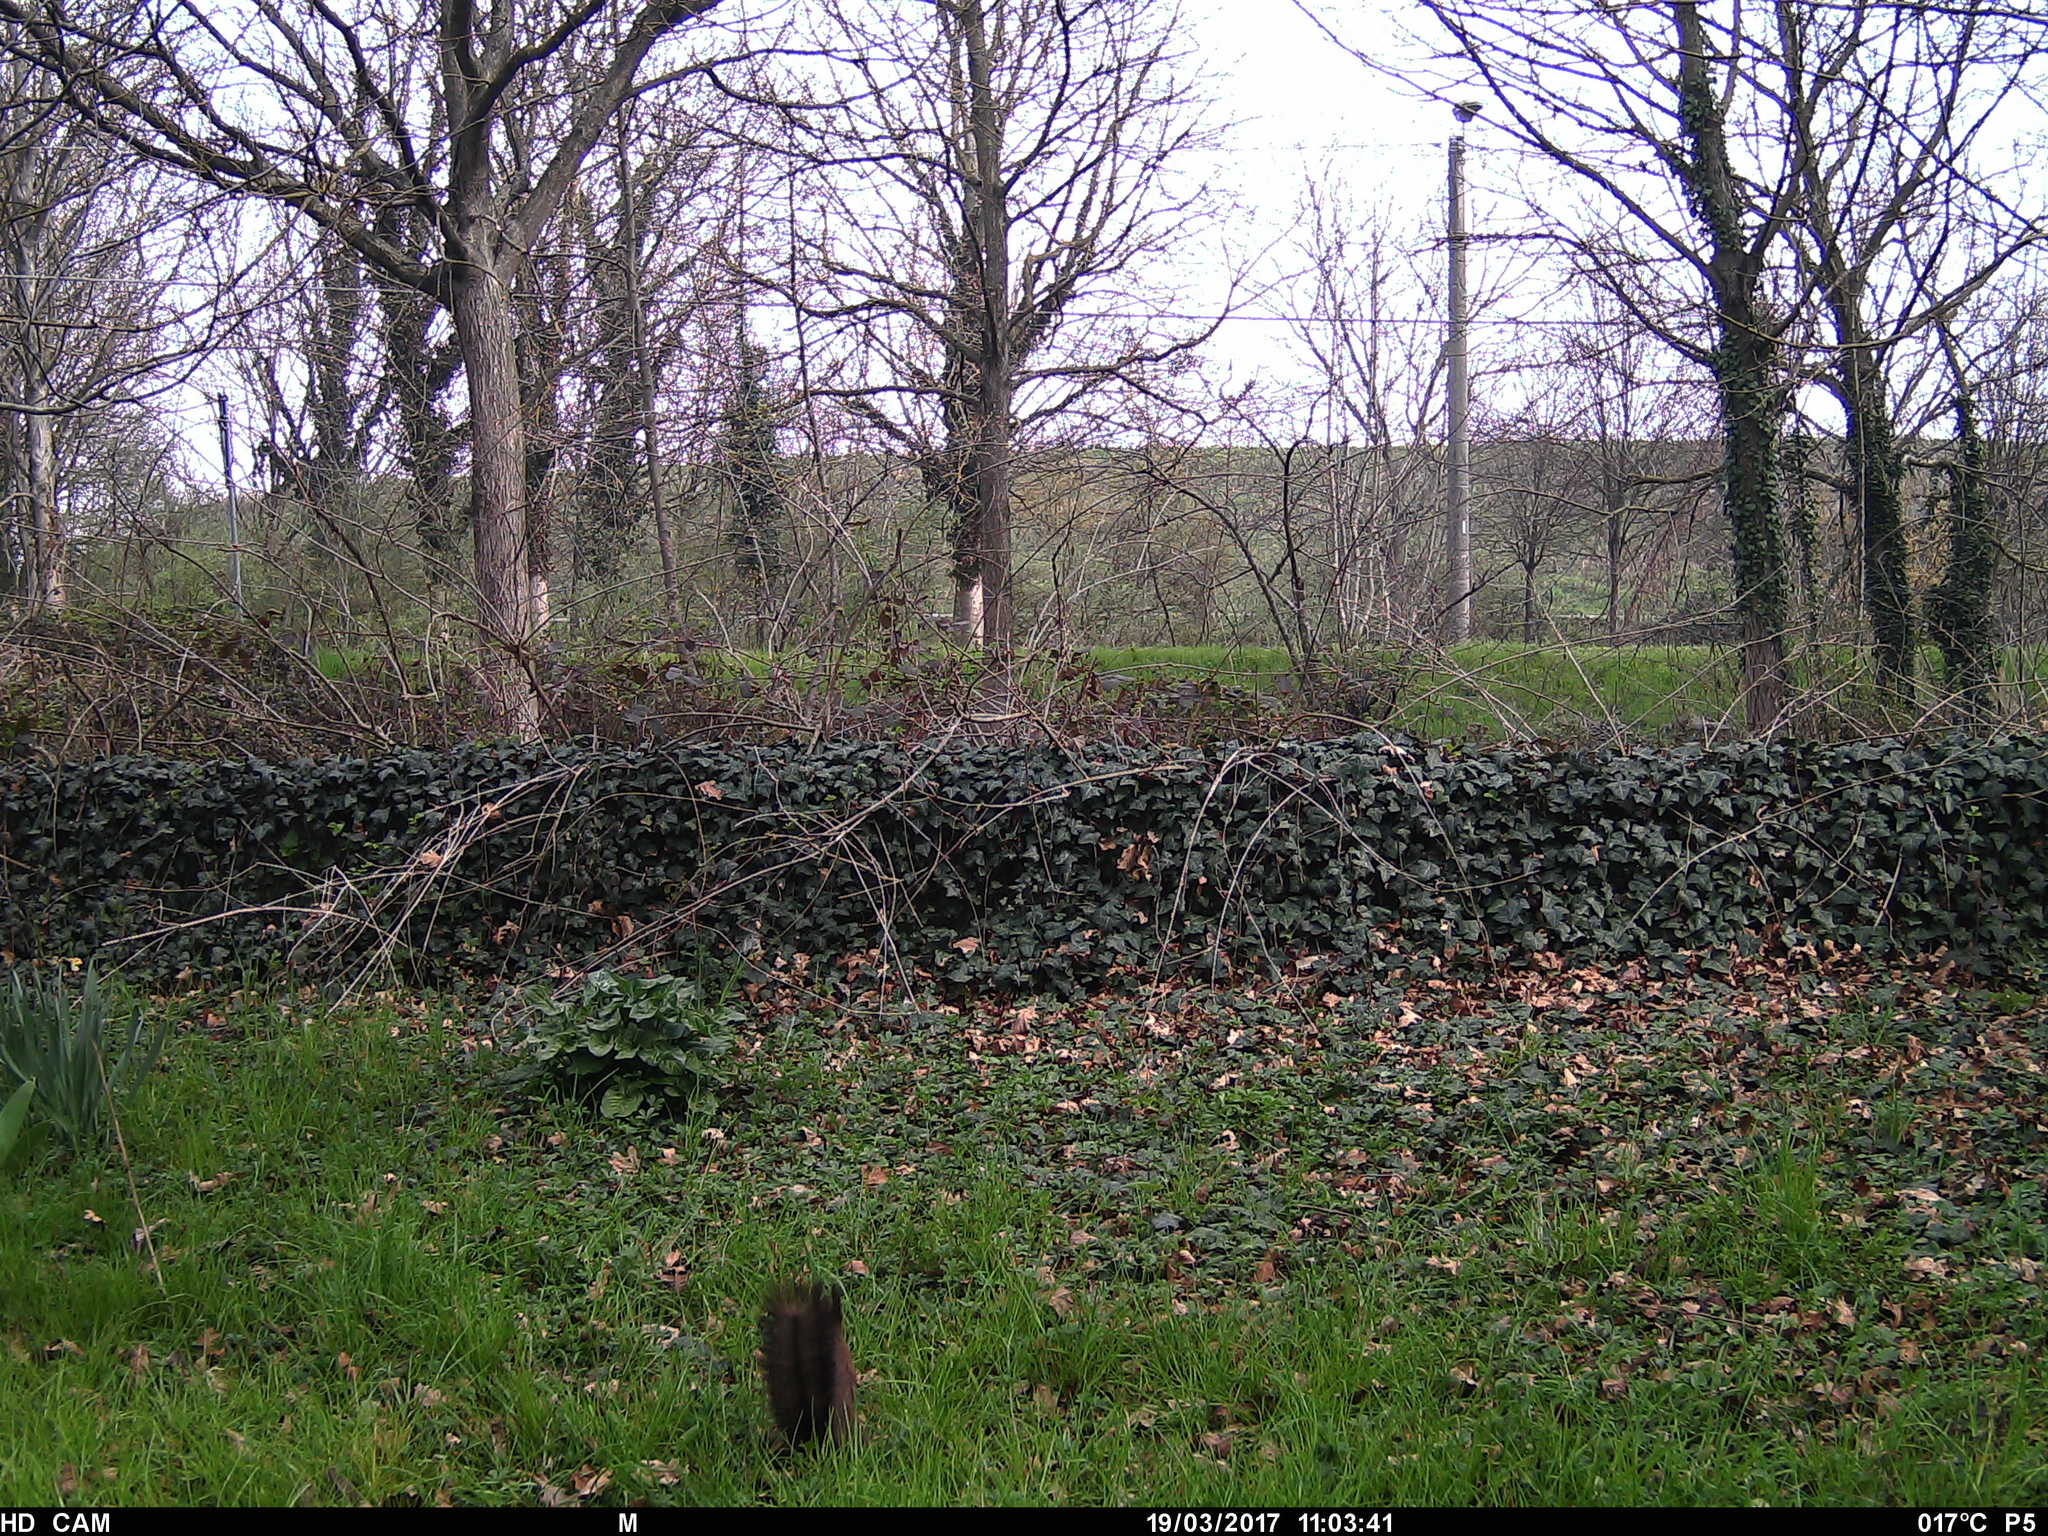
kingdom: Animalia
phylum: Chordata
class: Mammalia
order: Rodentia
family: Sciuridae
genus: Sciurus
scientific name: Sciurus vulgaris
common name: Eurasian red squirrel
